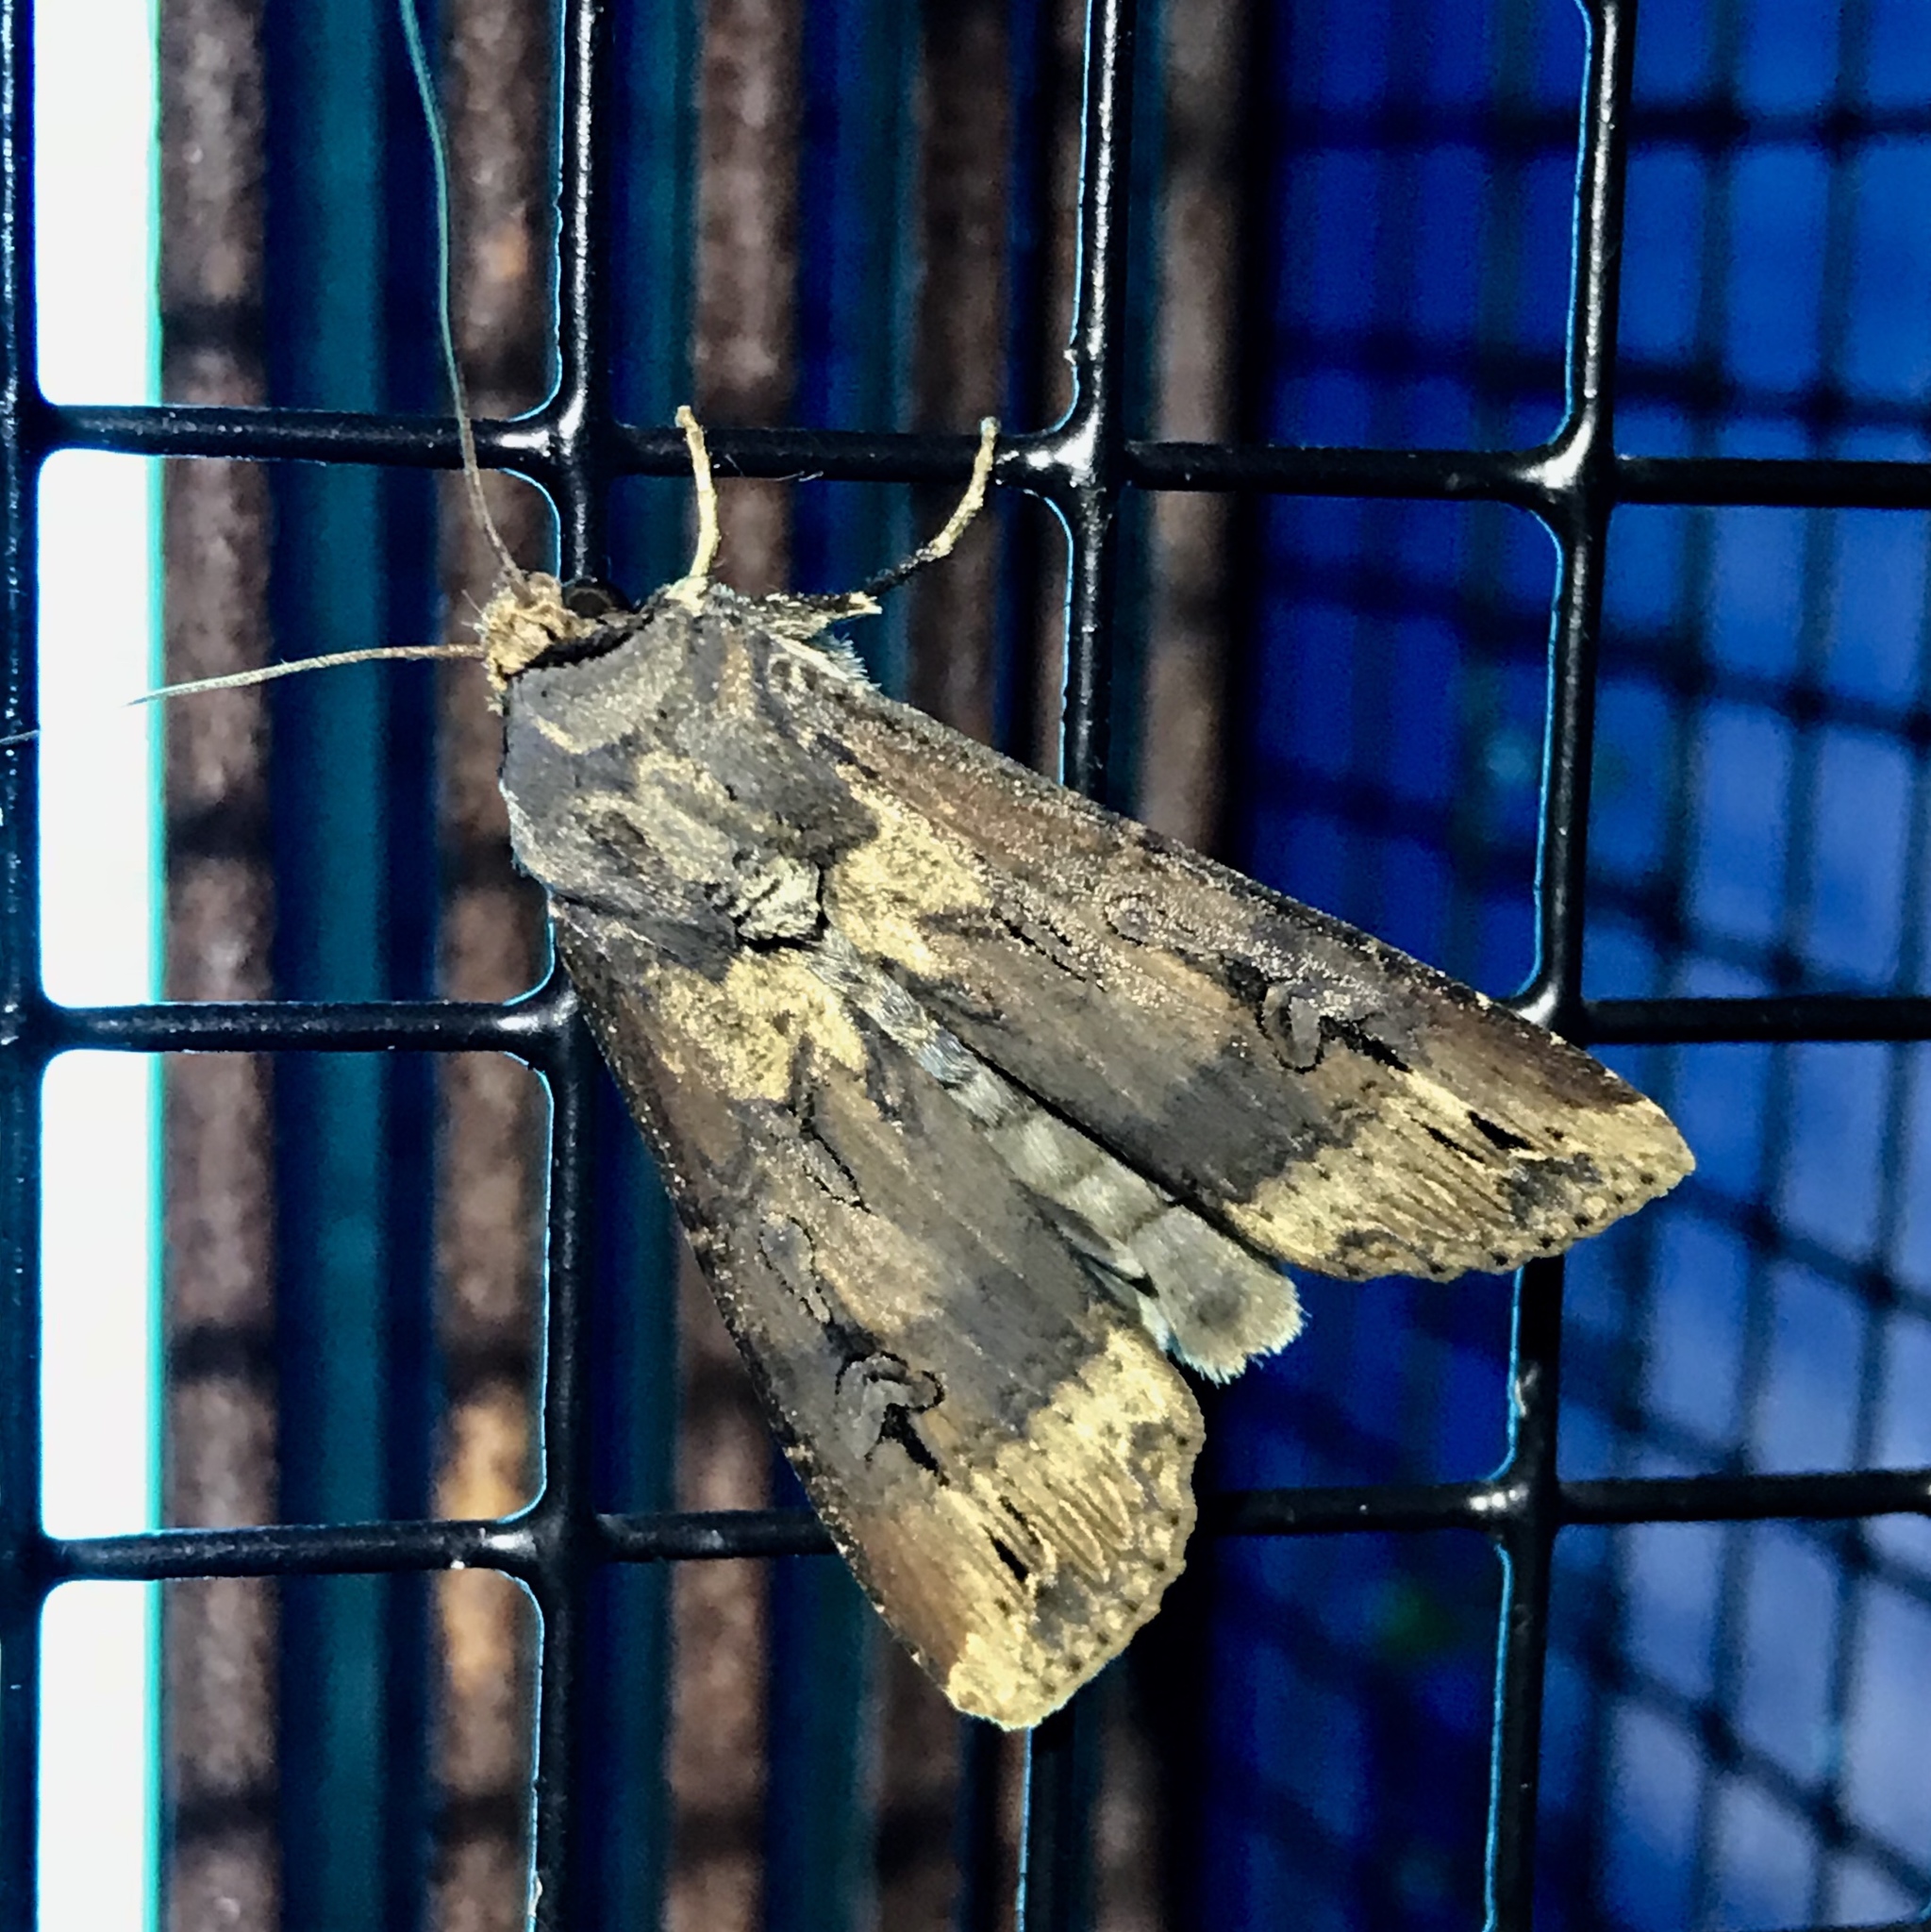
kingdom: Animalia
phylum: Arthropoda
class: Insecta
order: Lepidoptera
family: Noctuidae
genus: Agrotis
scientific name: Agrotis ipsilon
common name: Dark sword-grass
